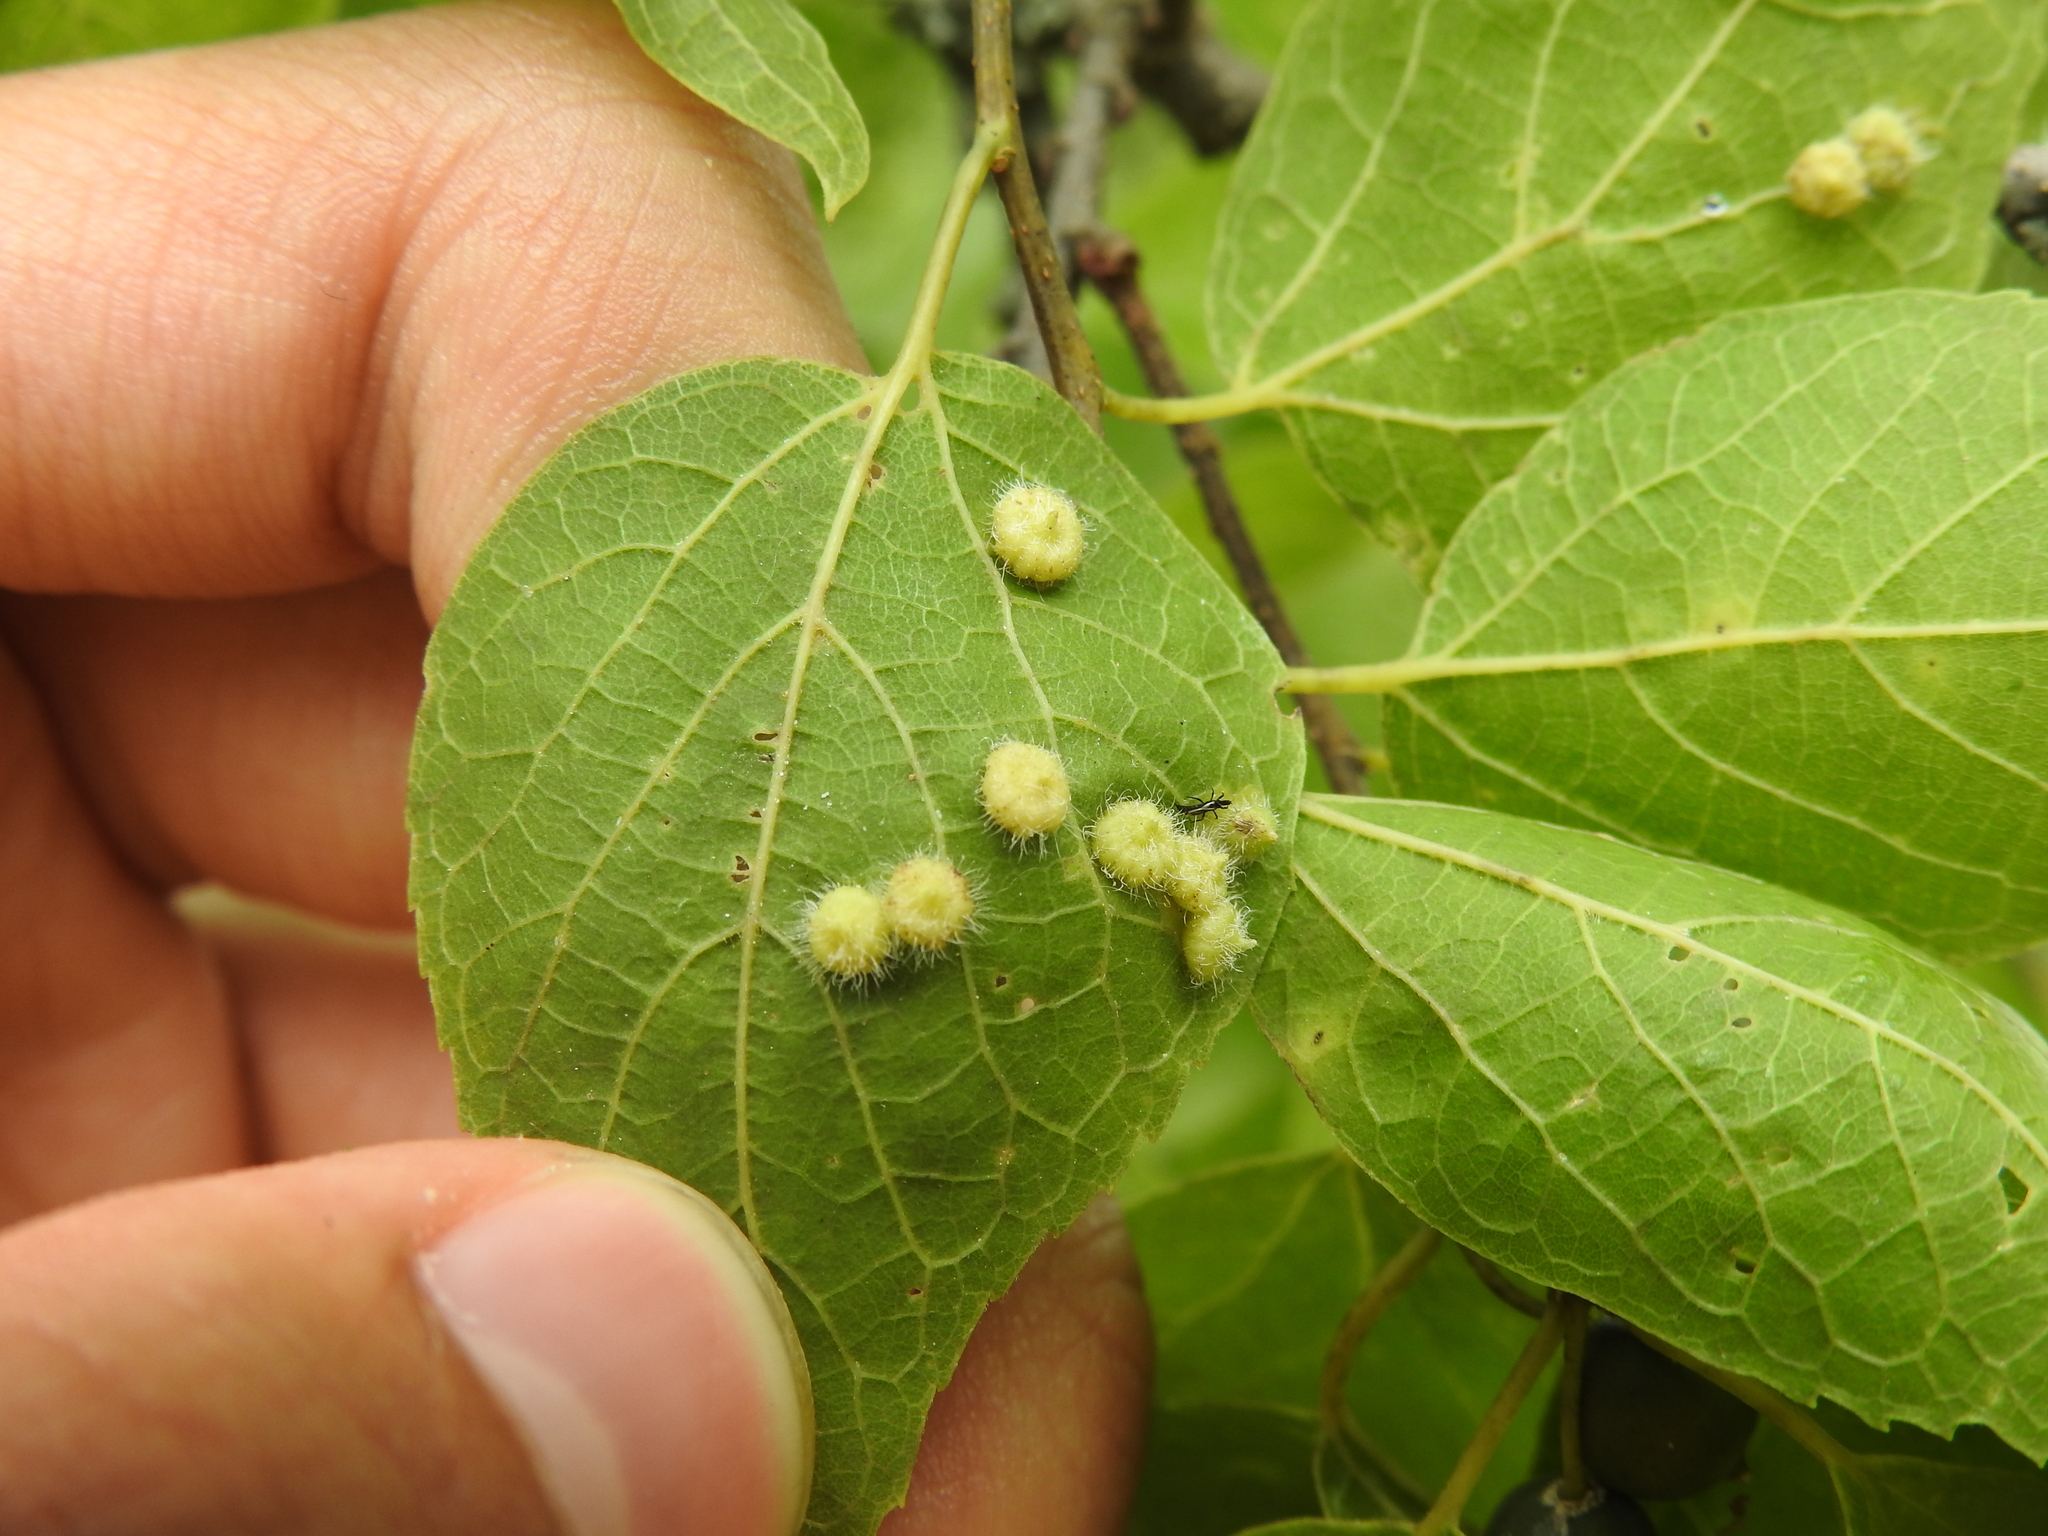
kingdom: Animalia
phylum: Arthropoda
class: Insecta
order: Diptera
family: Cecidomyiidae
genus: Celticecis
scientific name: Celticecis capsularis
